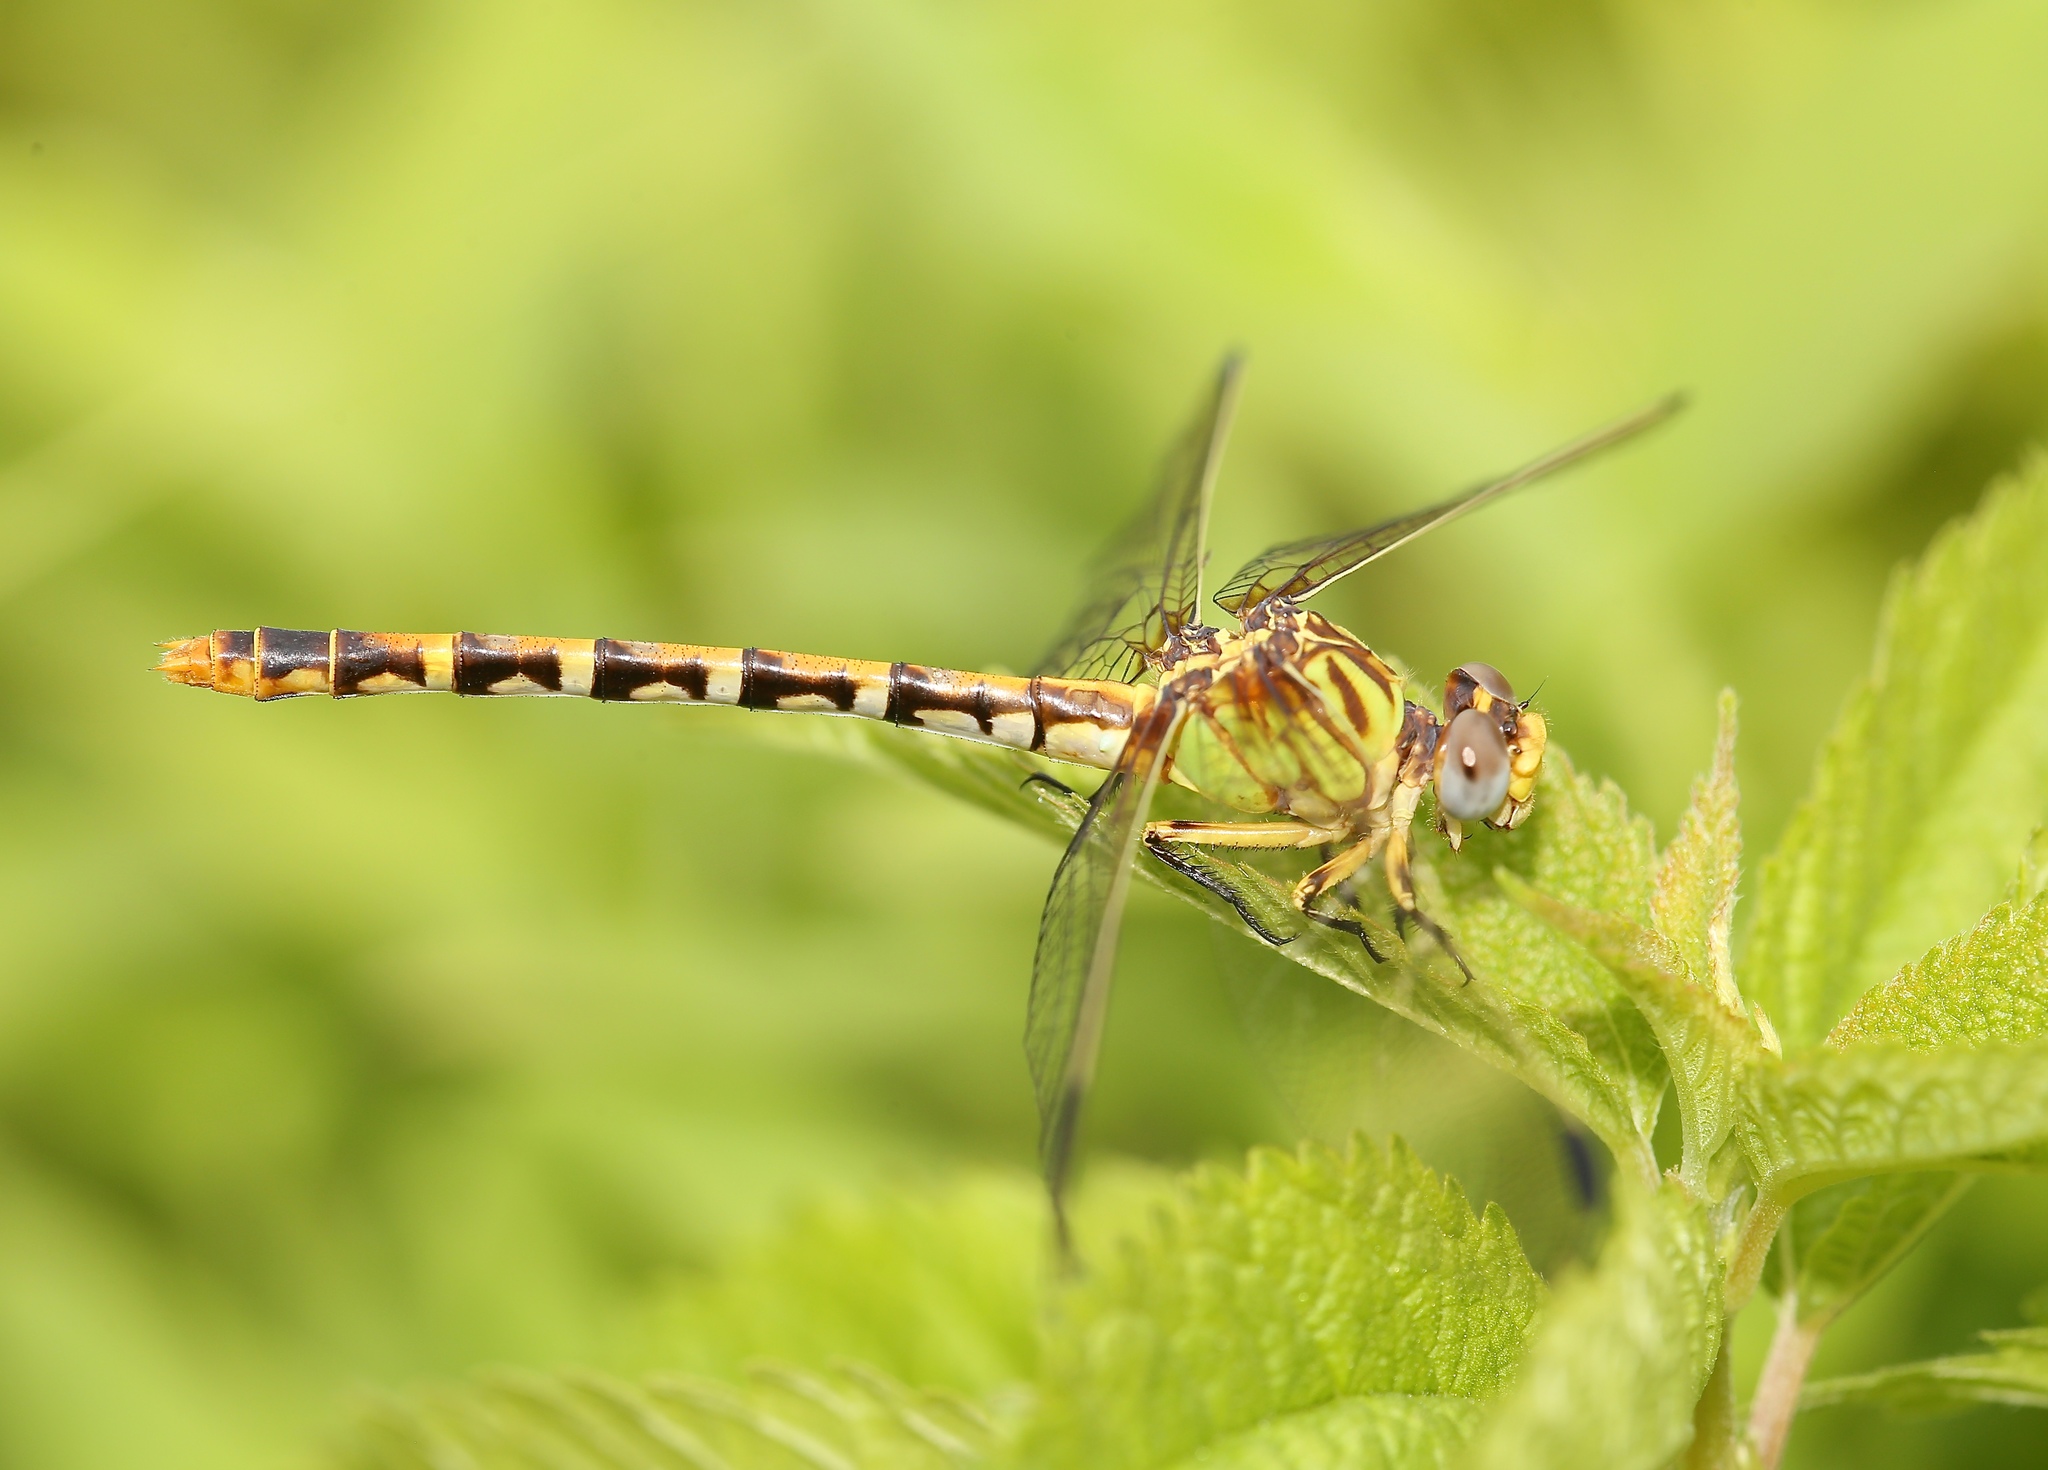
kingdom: Animalia
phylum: Arthropoda
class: Insecta
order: Odonata
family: Gomphidae
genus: Erpetogomphus
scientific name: Erpetogomphus designatus
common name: Eastern ringtail
